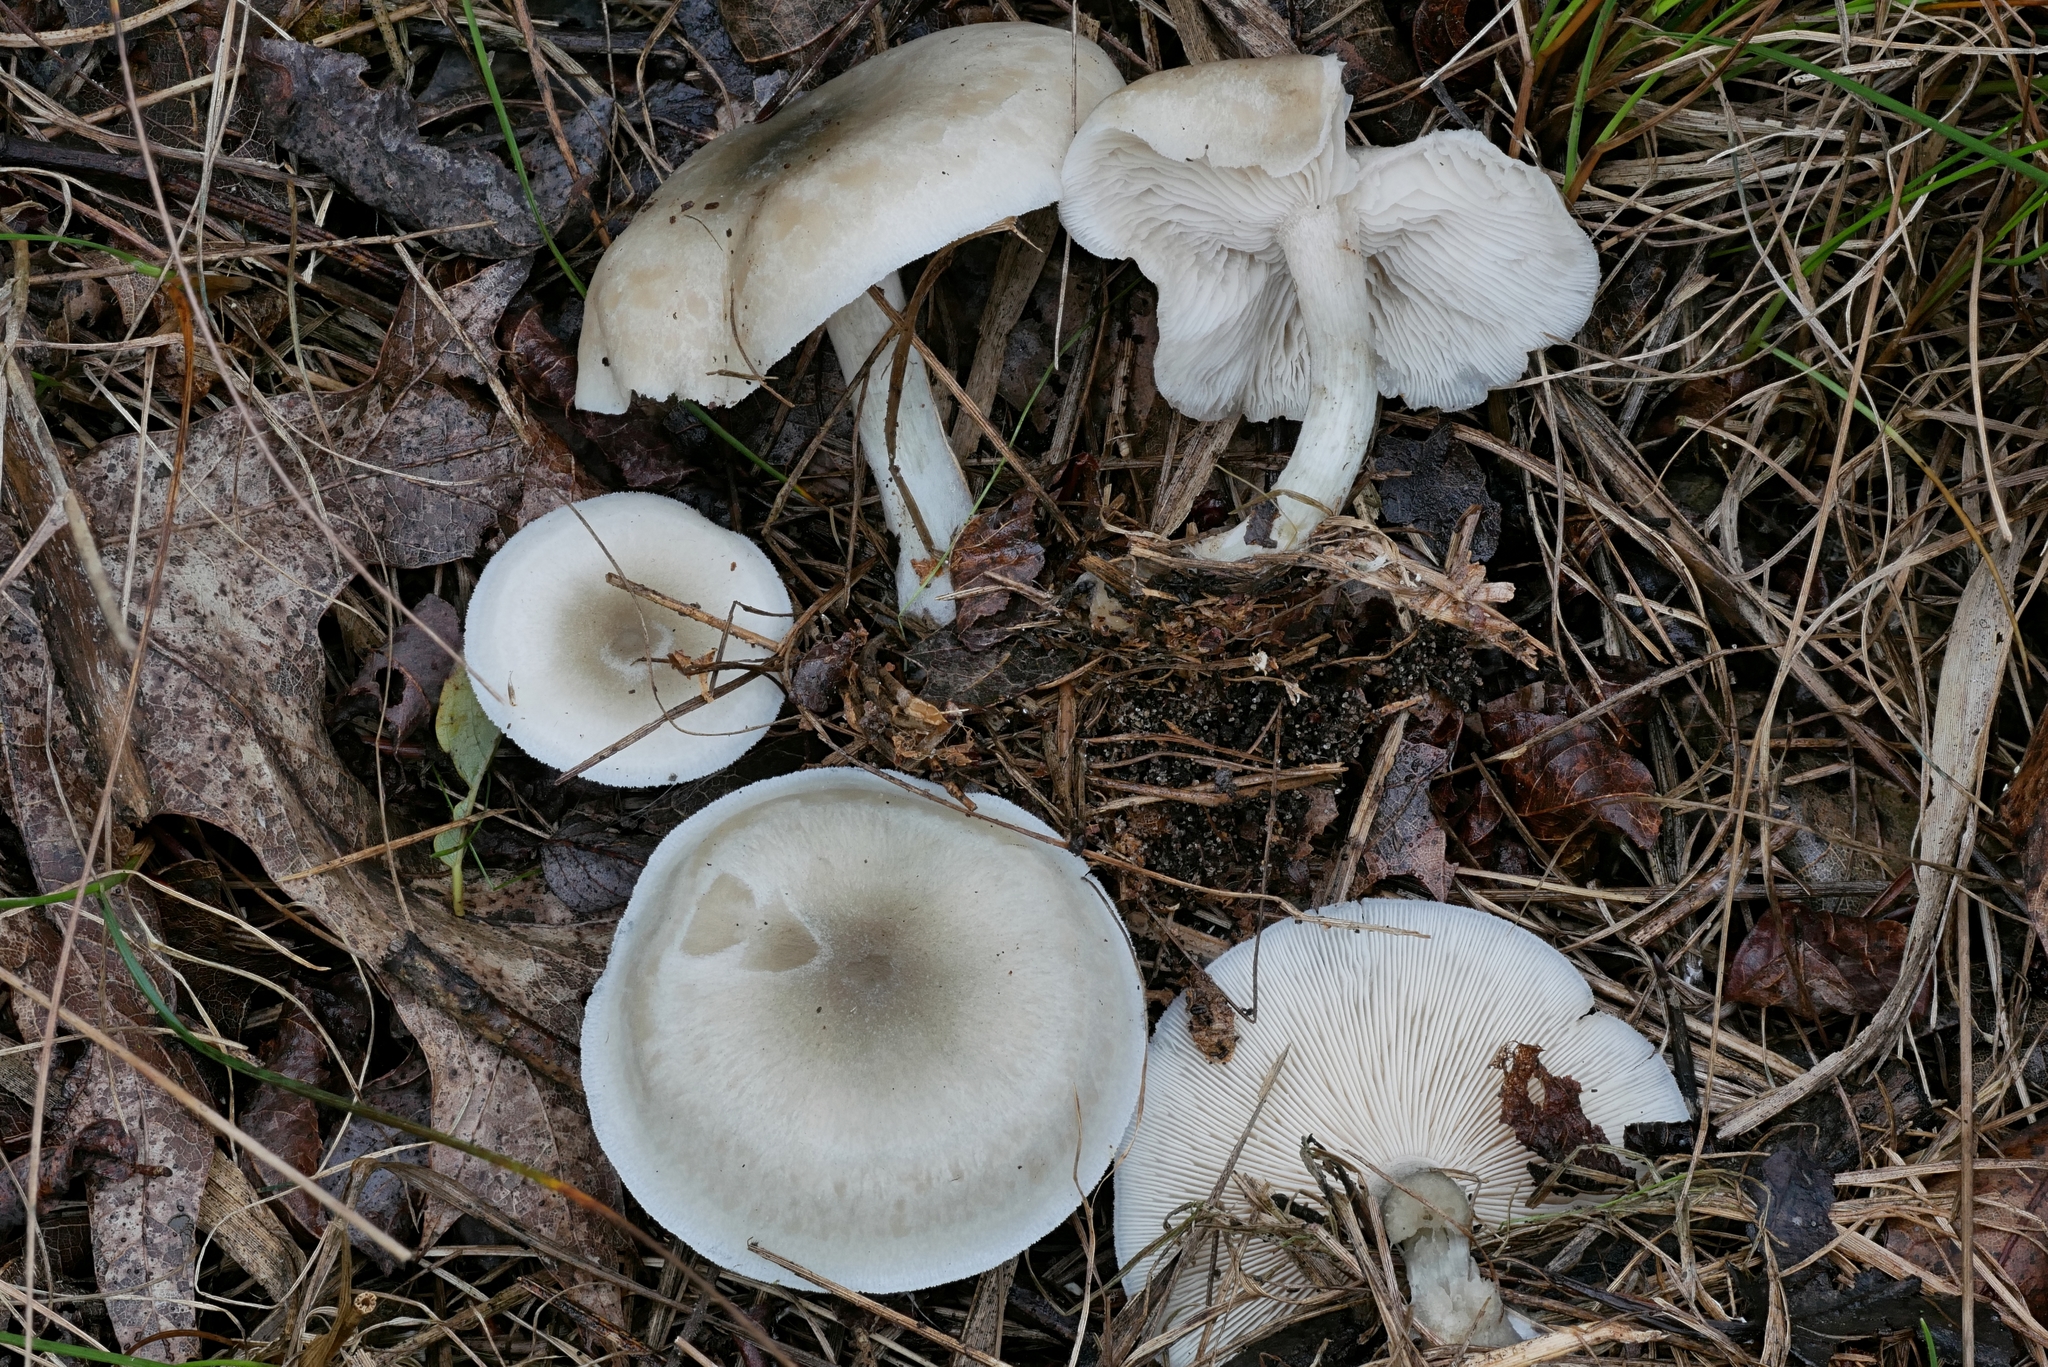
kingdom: Fungi
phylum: Basidiomycota
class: Agaricomycetes
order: Agaricales
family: Tricholomataceae
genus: Collybia
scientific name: Collybia
